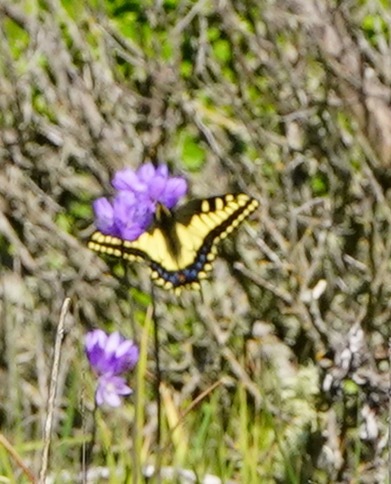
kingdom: Animalia
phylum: Arthropoda
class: Insecta
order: Lepidoptera
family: Papilionidae
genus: Papilio
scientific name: Papilio zelicaon
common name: Anise swallowtail
